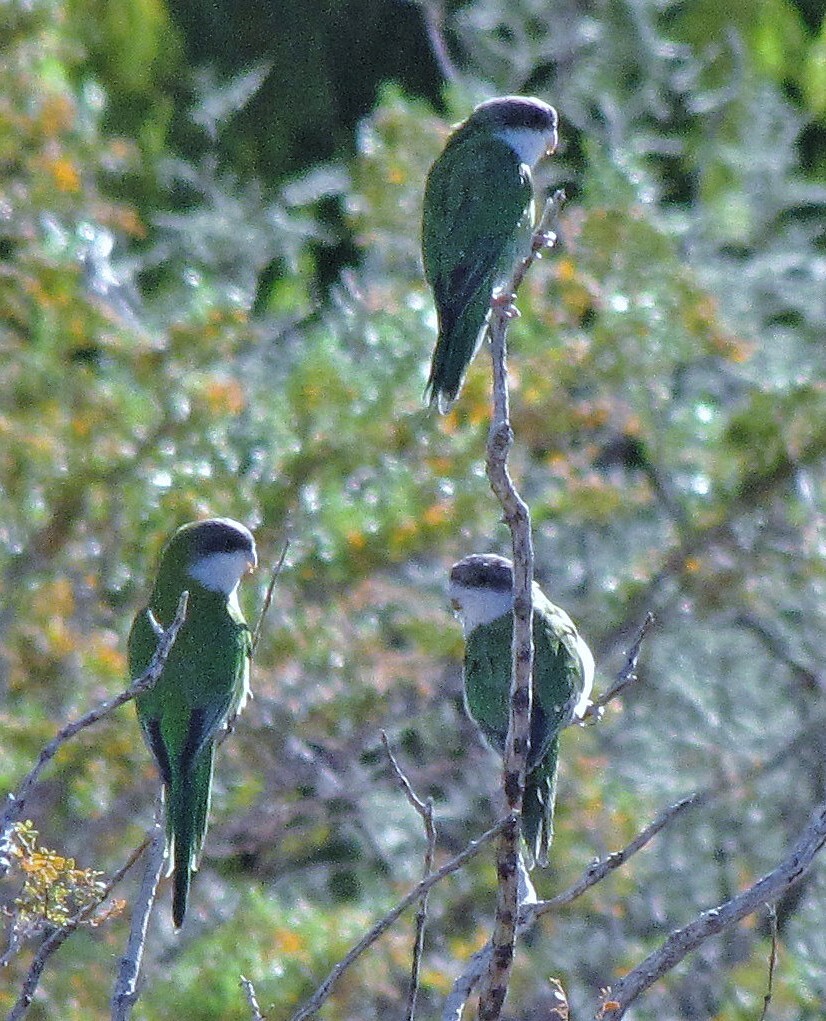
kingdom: Animalia
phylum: Chordata
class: Aves
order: Psittaciformes
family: Psittacidae
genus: Psilopsiagon
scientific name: Psilopsiagon aymara
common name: Grey-hooded parakeet
